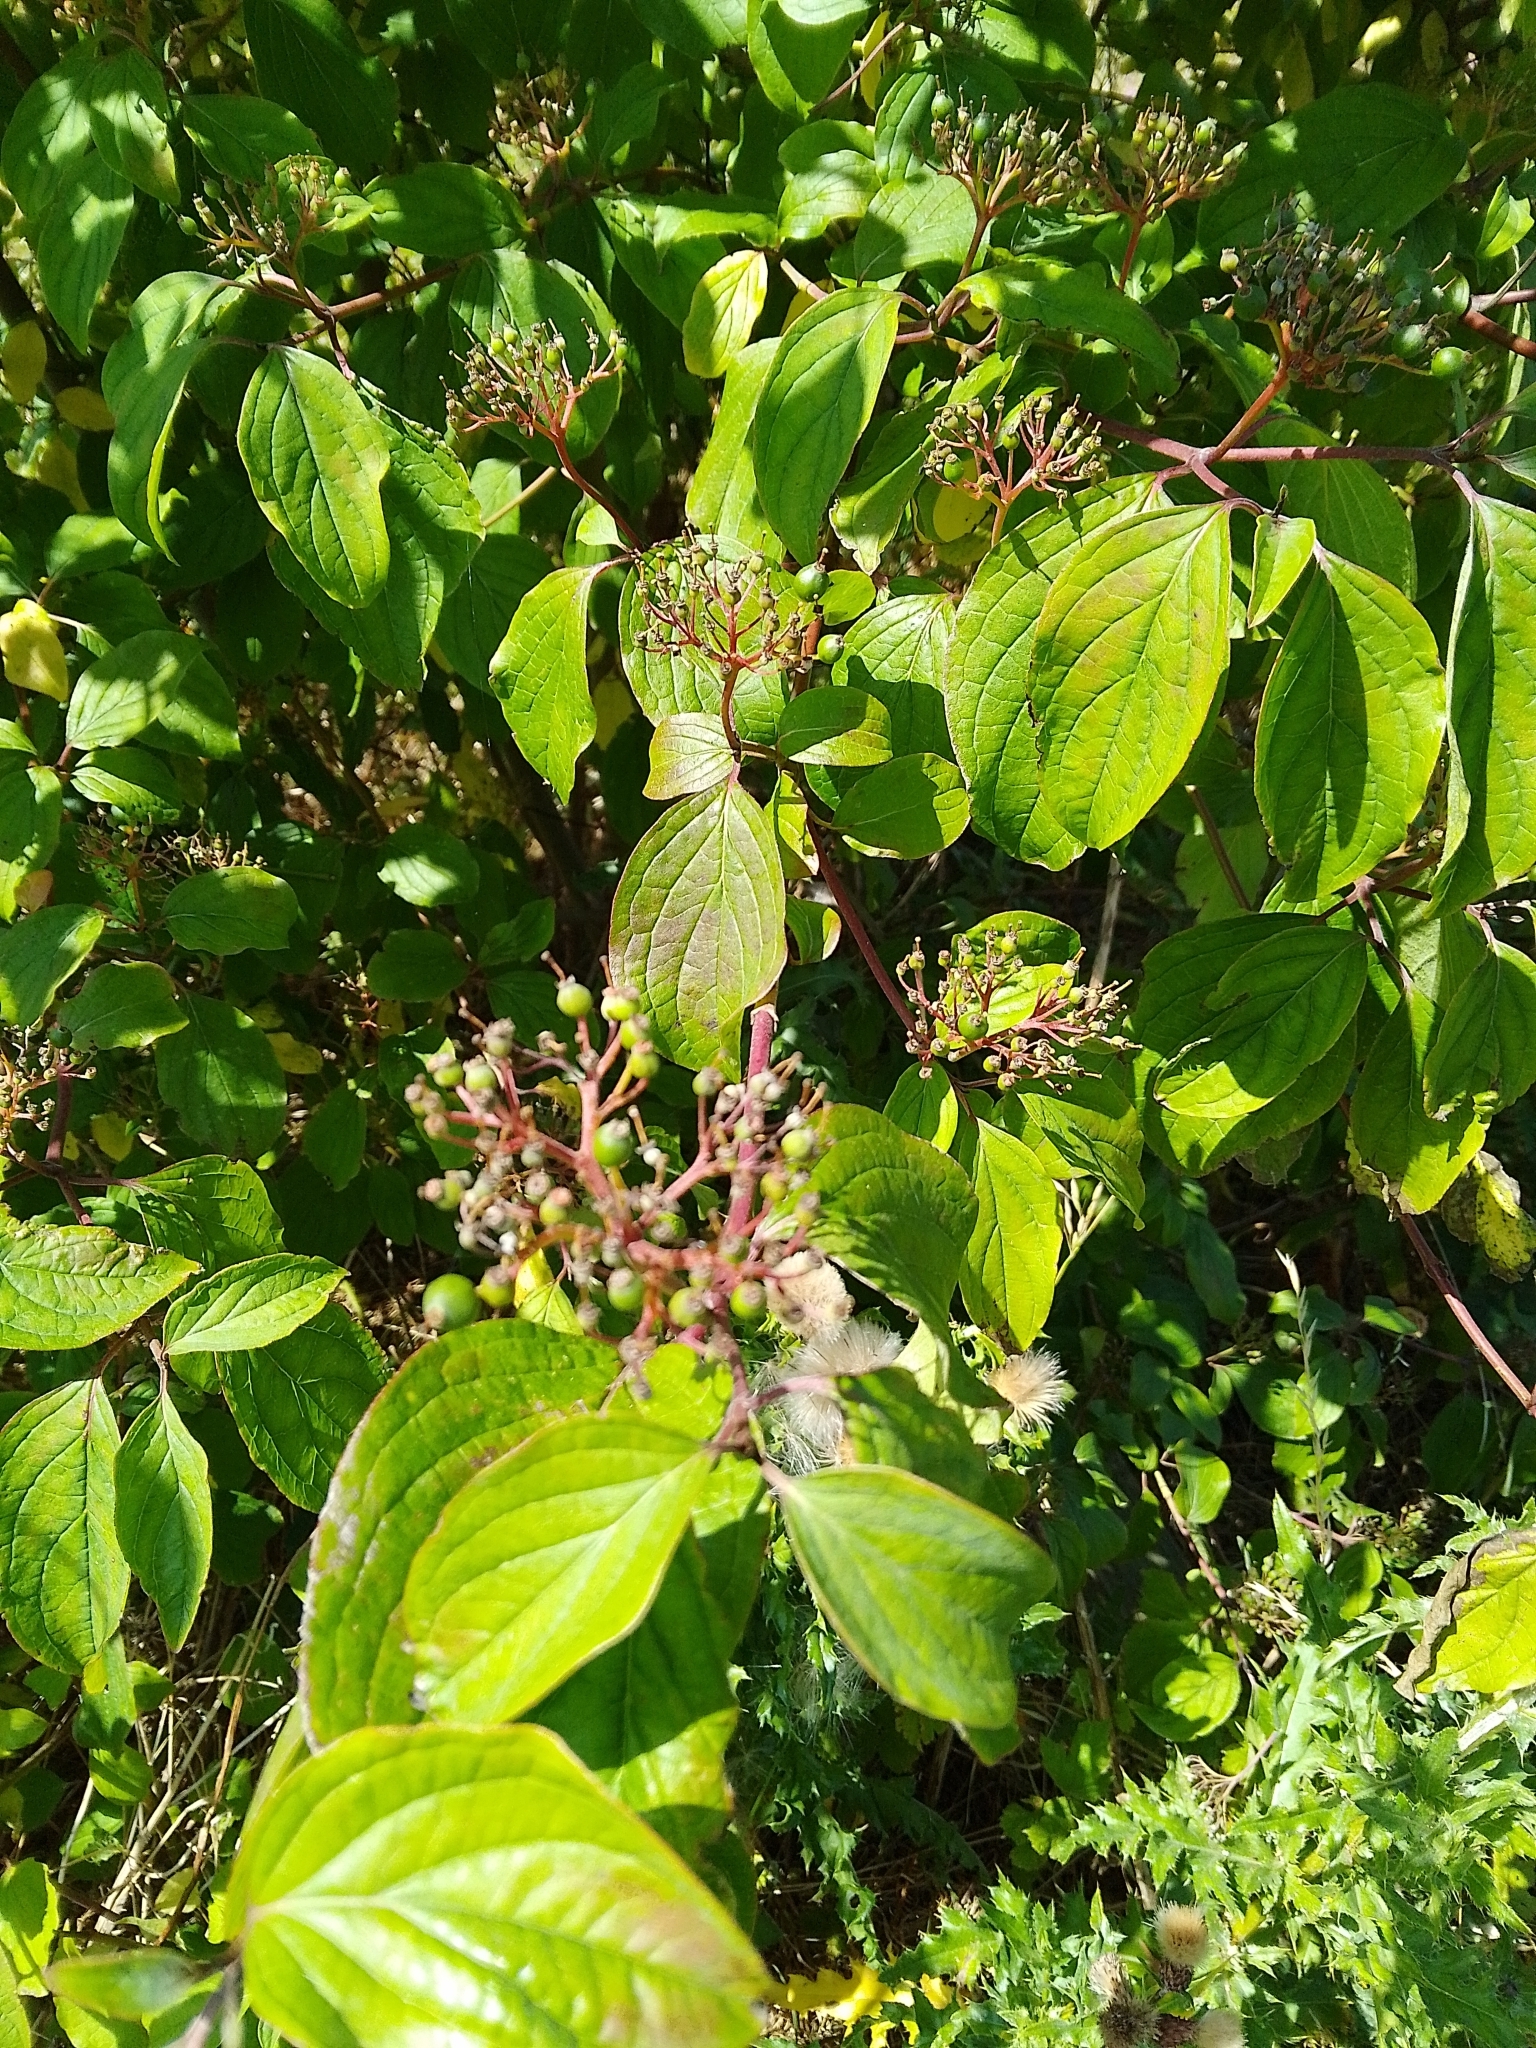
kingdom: Plantae
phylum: Tracheophyta
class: Magnoliopsida
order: Cornales
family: Cornaceae
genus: Cornus
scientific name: Cornus sanguinea
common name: Dogwood
